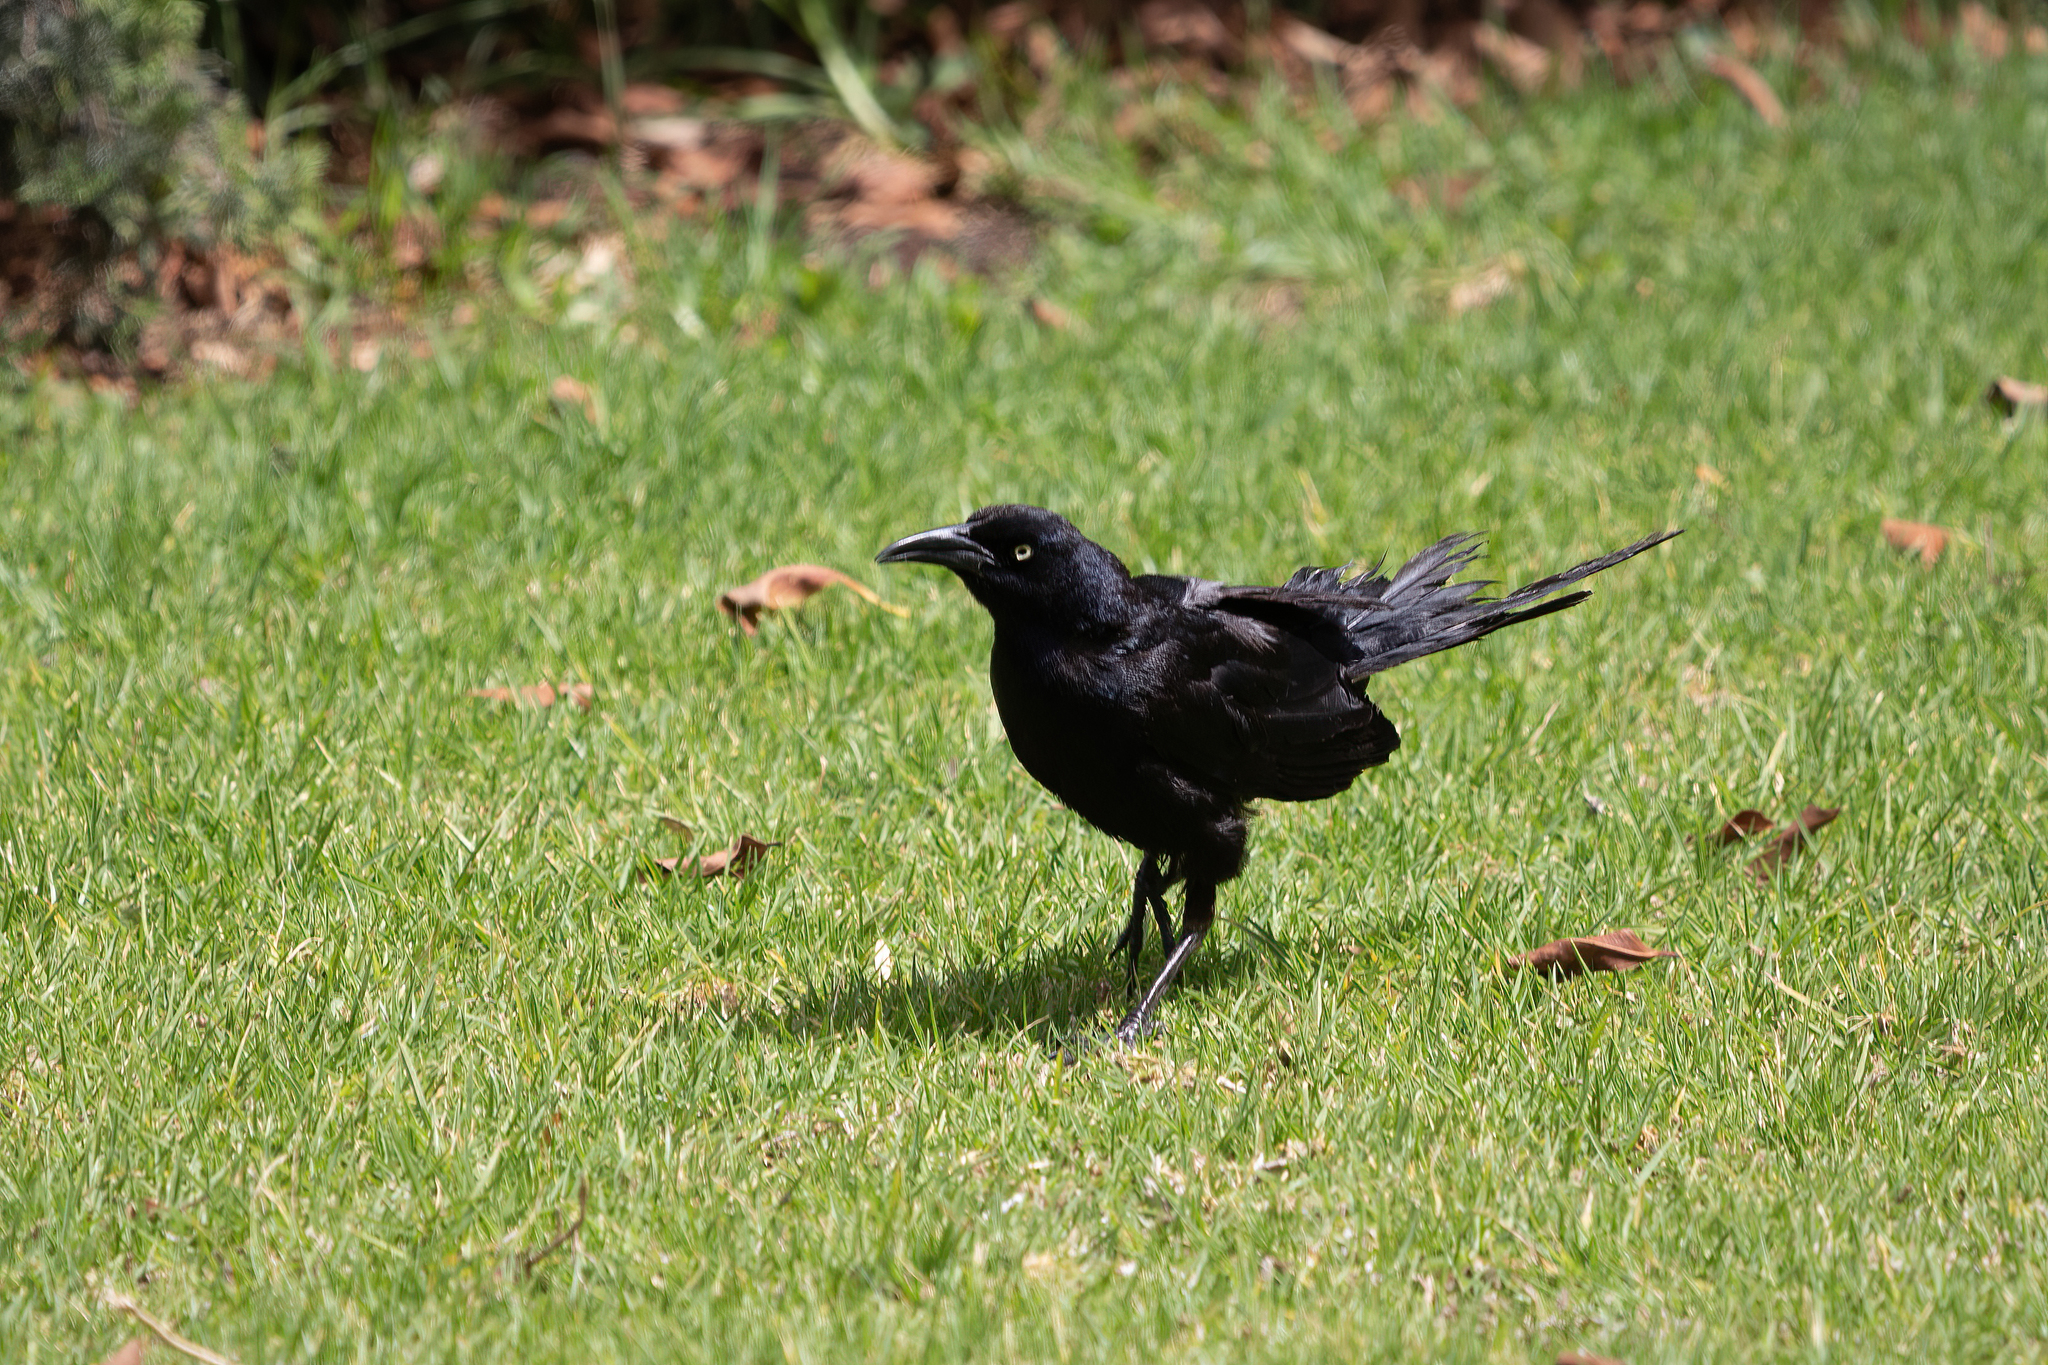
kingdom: Animalia
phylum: Chordata
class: Aves
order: Passeriformes
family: Icteridae
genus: Quiscalus
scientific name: Quiscalus mexicanus
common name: Great-tailed grackle
